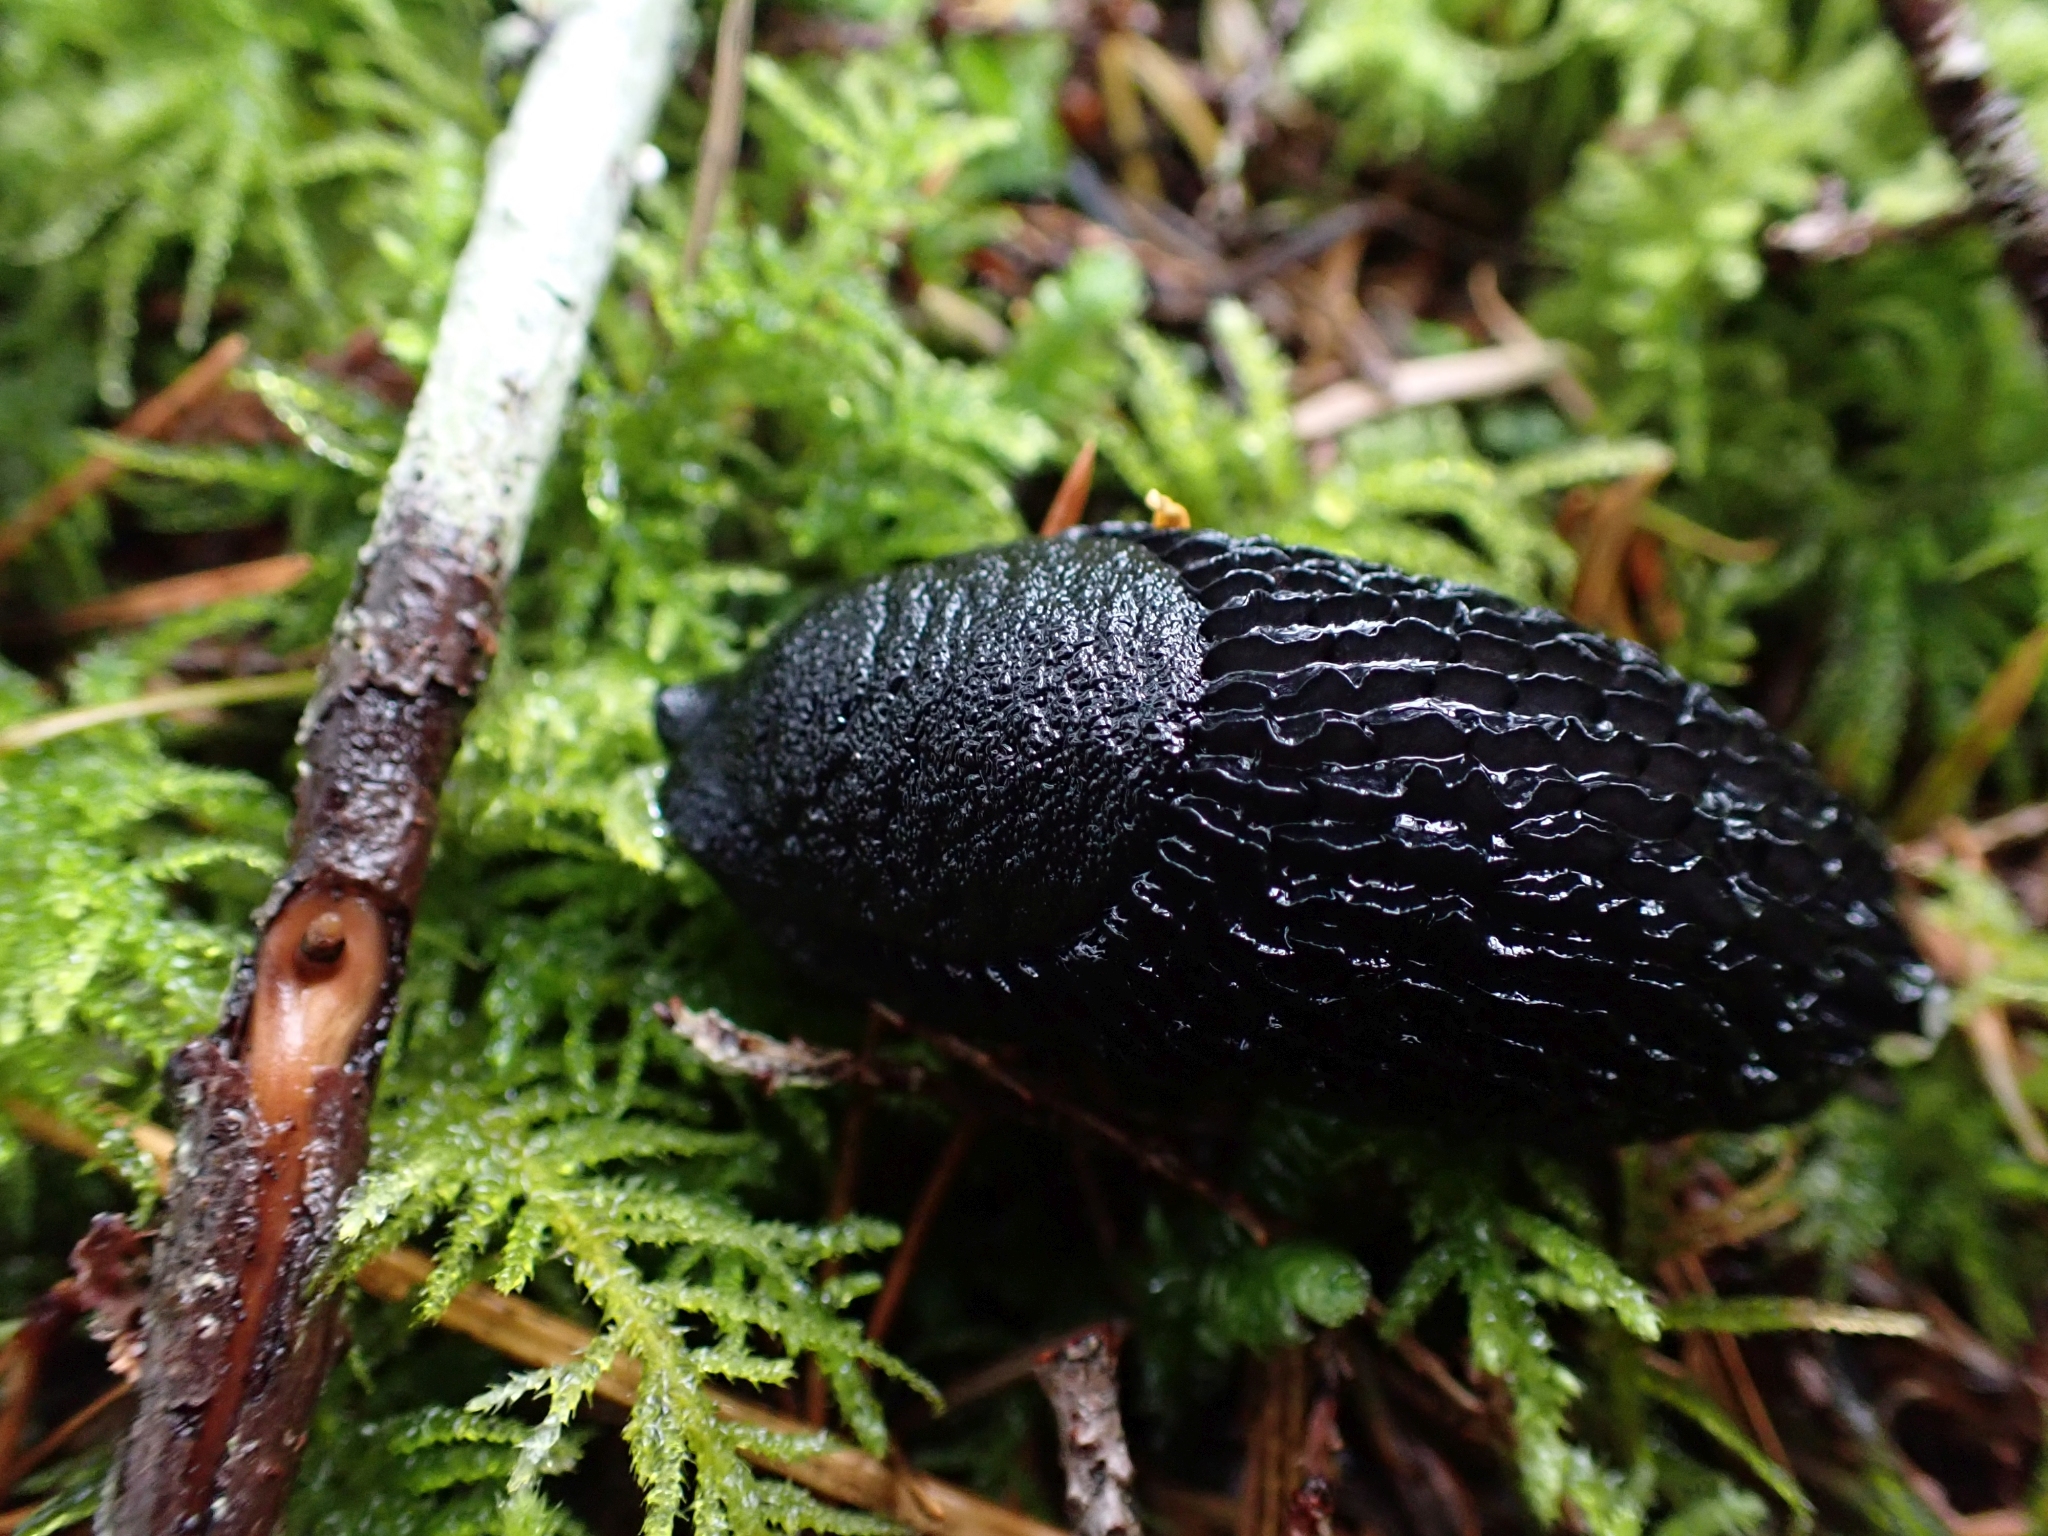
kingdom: Animalia
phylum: Mollusca
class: Gastropoda
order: Stylommatophora
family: Arionidae
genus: Arion
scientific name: Arion
